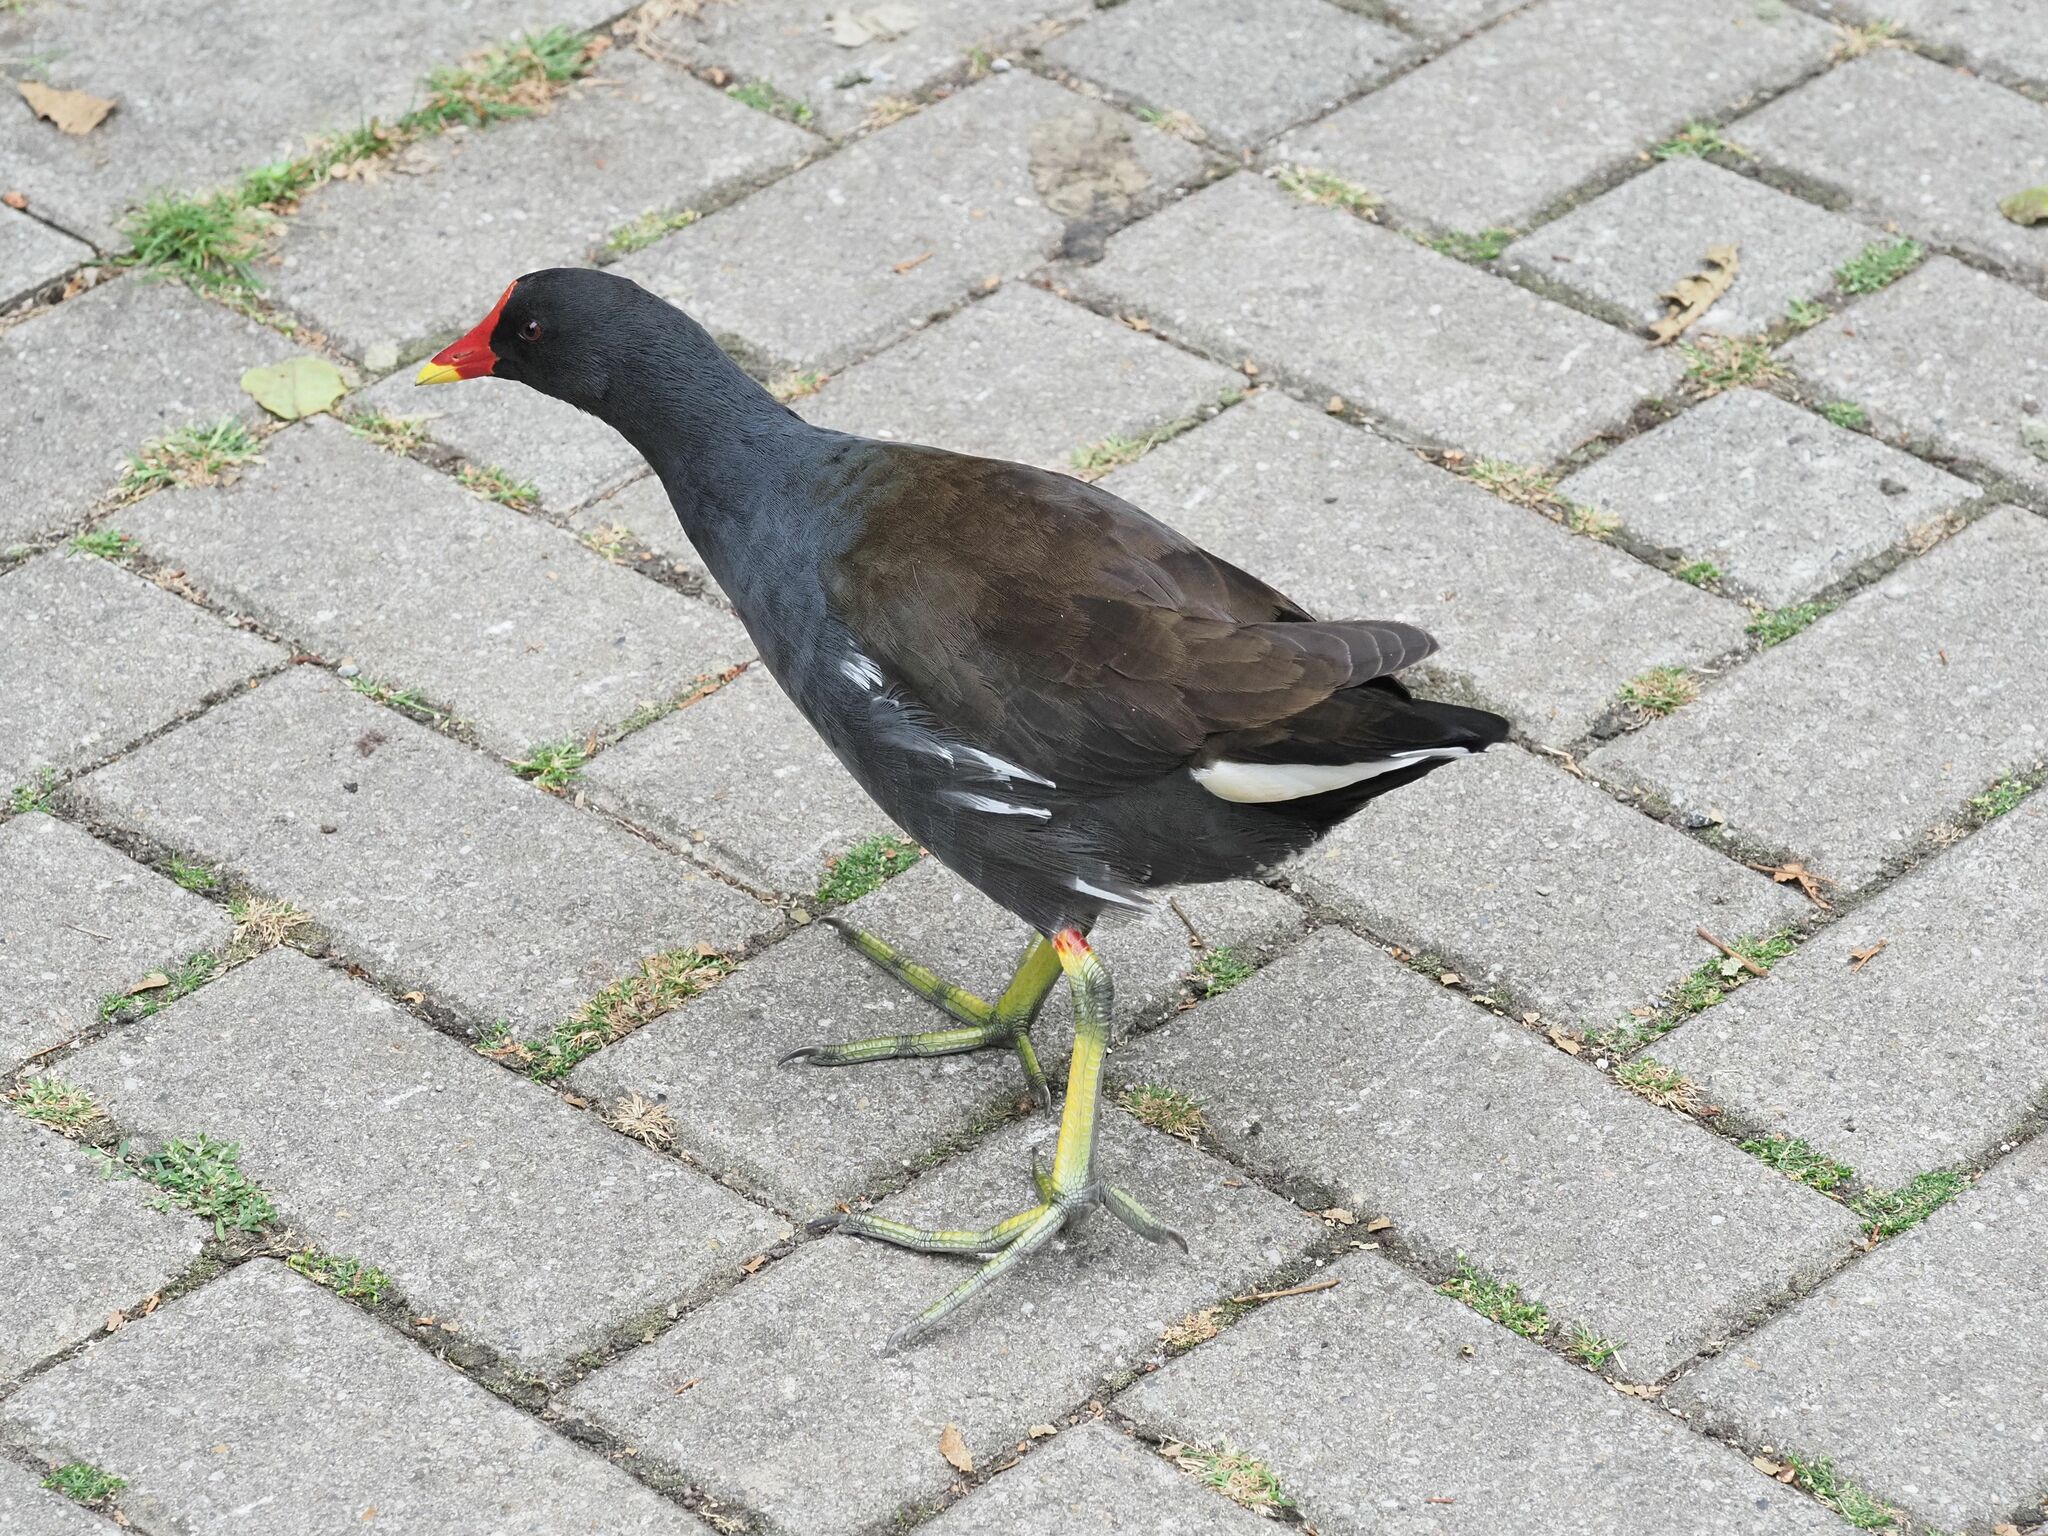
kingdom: Animalia
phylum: Chordata
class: Aves
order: Gruiformes
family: Rallidae
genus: Gallinula
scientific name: Gallinula chloropus
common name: Common moorhen
